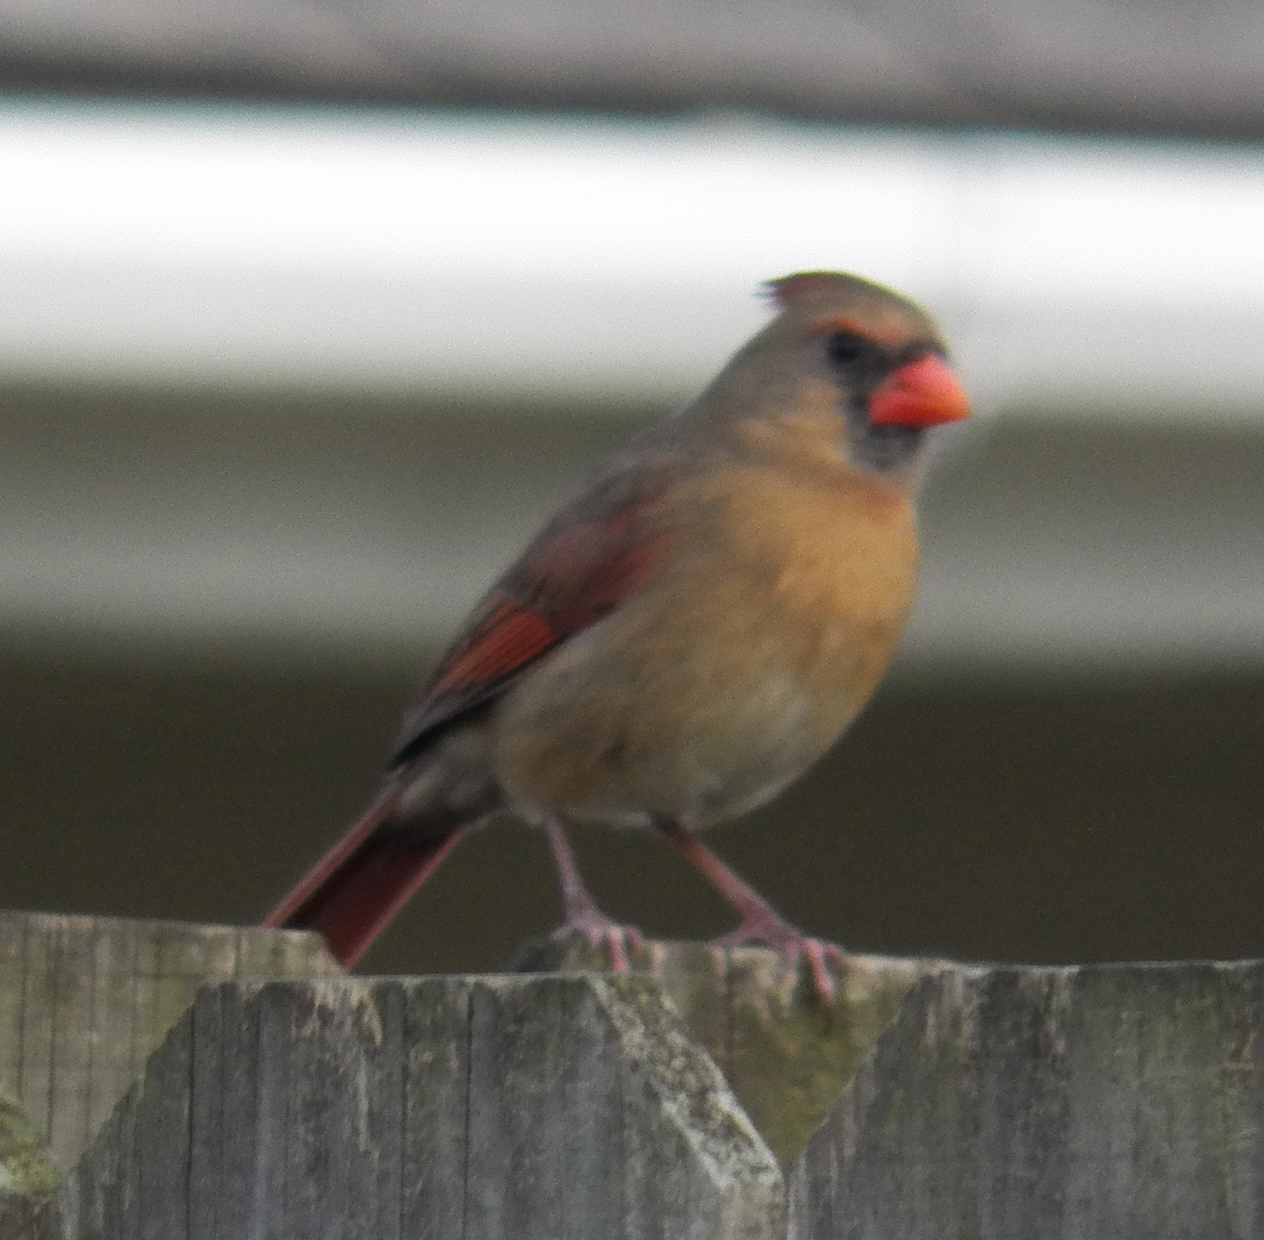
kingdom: Animalia
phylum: Chordata
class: Aves
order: Passeriformes
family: Cardinalidae
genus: Cardinalis
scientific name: Cardinalis cardinalis
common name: Northern cardinal
